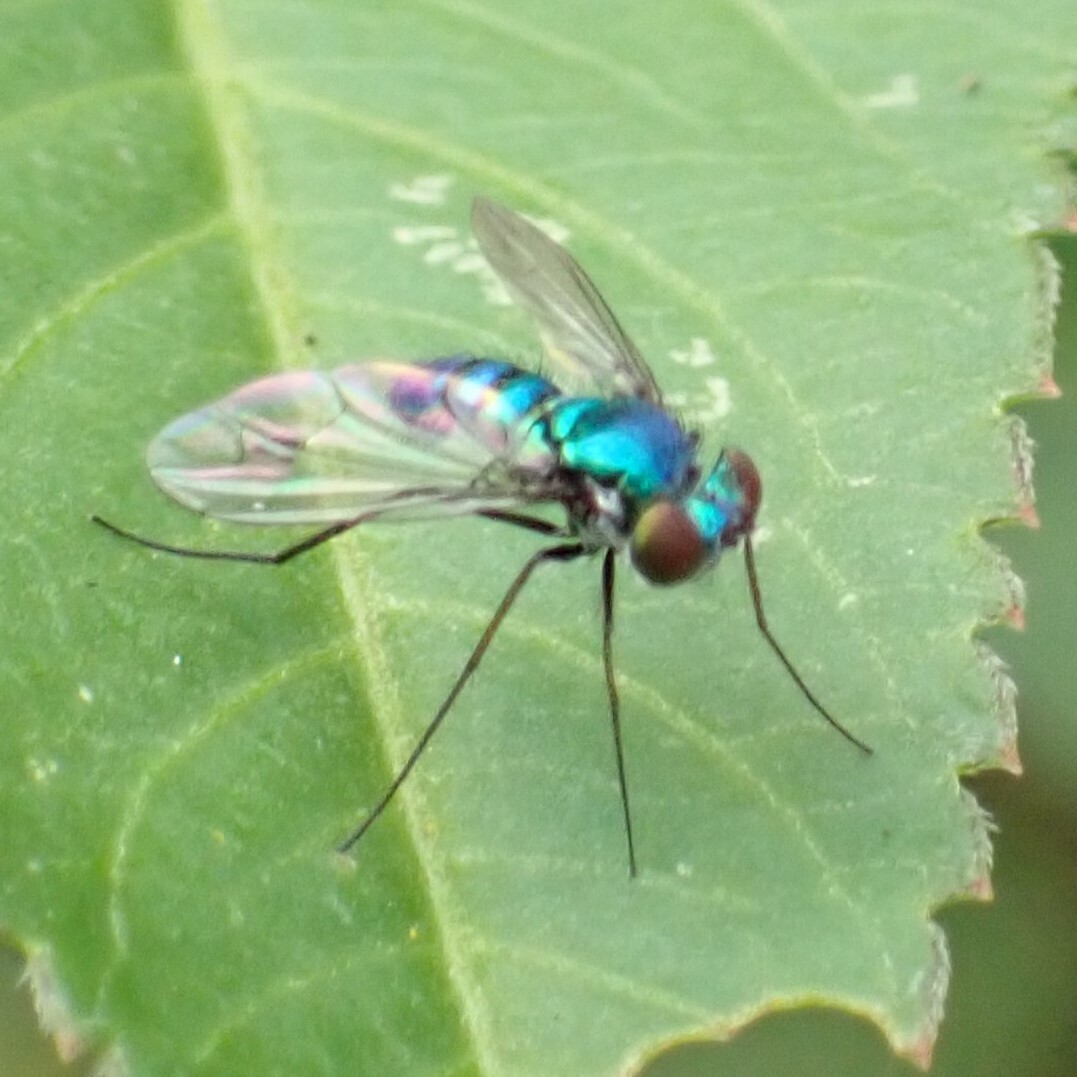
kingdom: Animalia
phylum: Arthropoda
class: Insecta
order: Diptera
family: Dolichopodidae
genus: Condylostylus
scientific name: Condylostylus purpureus
